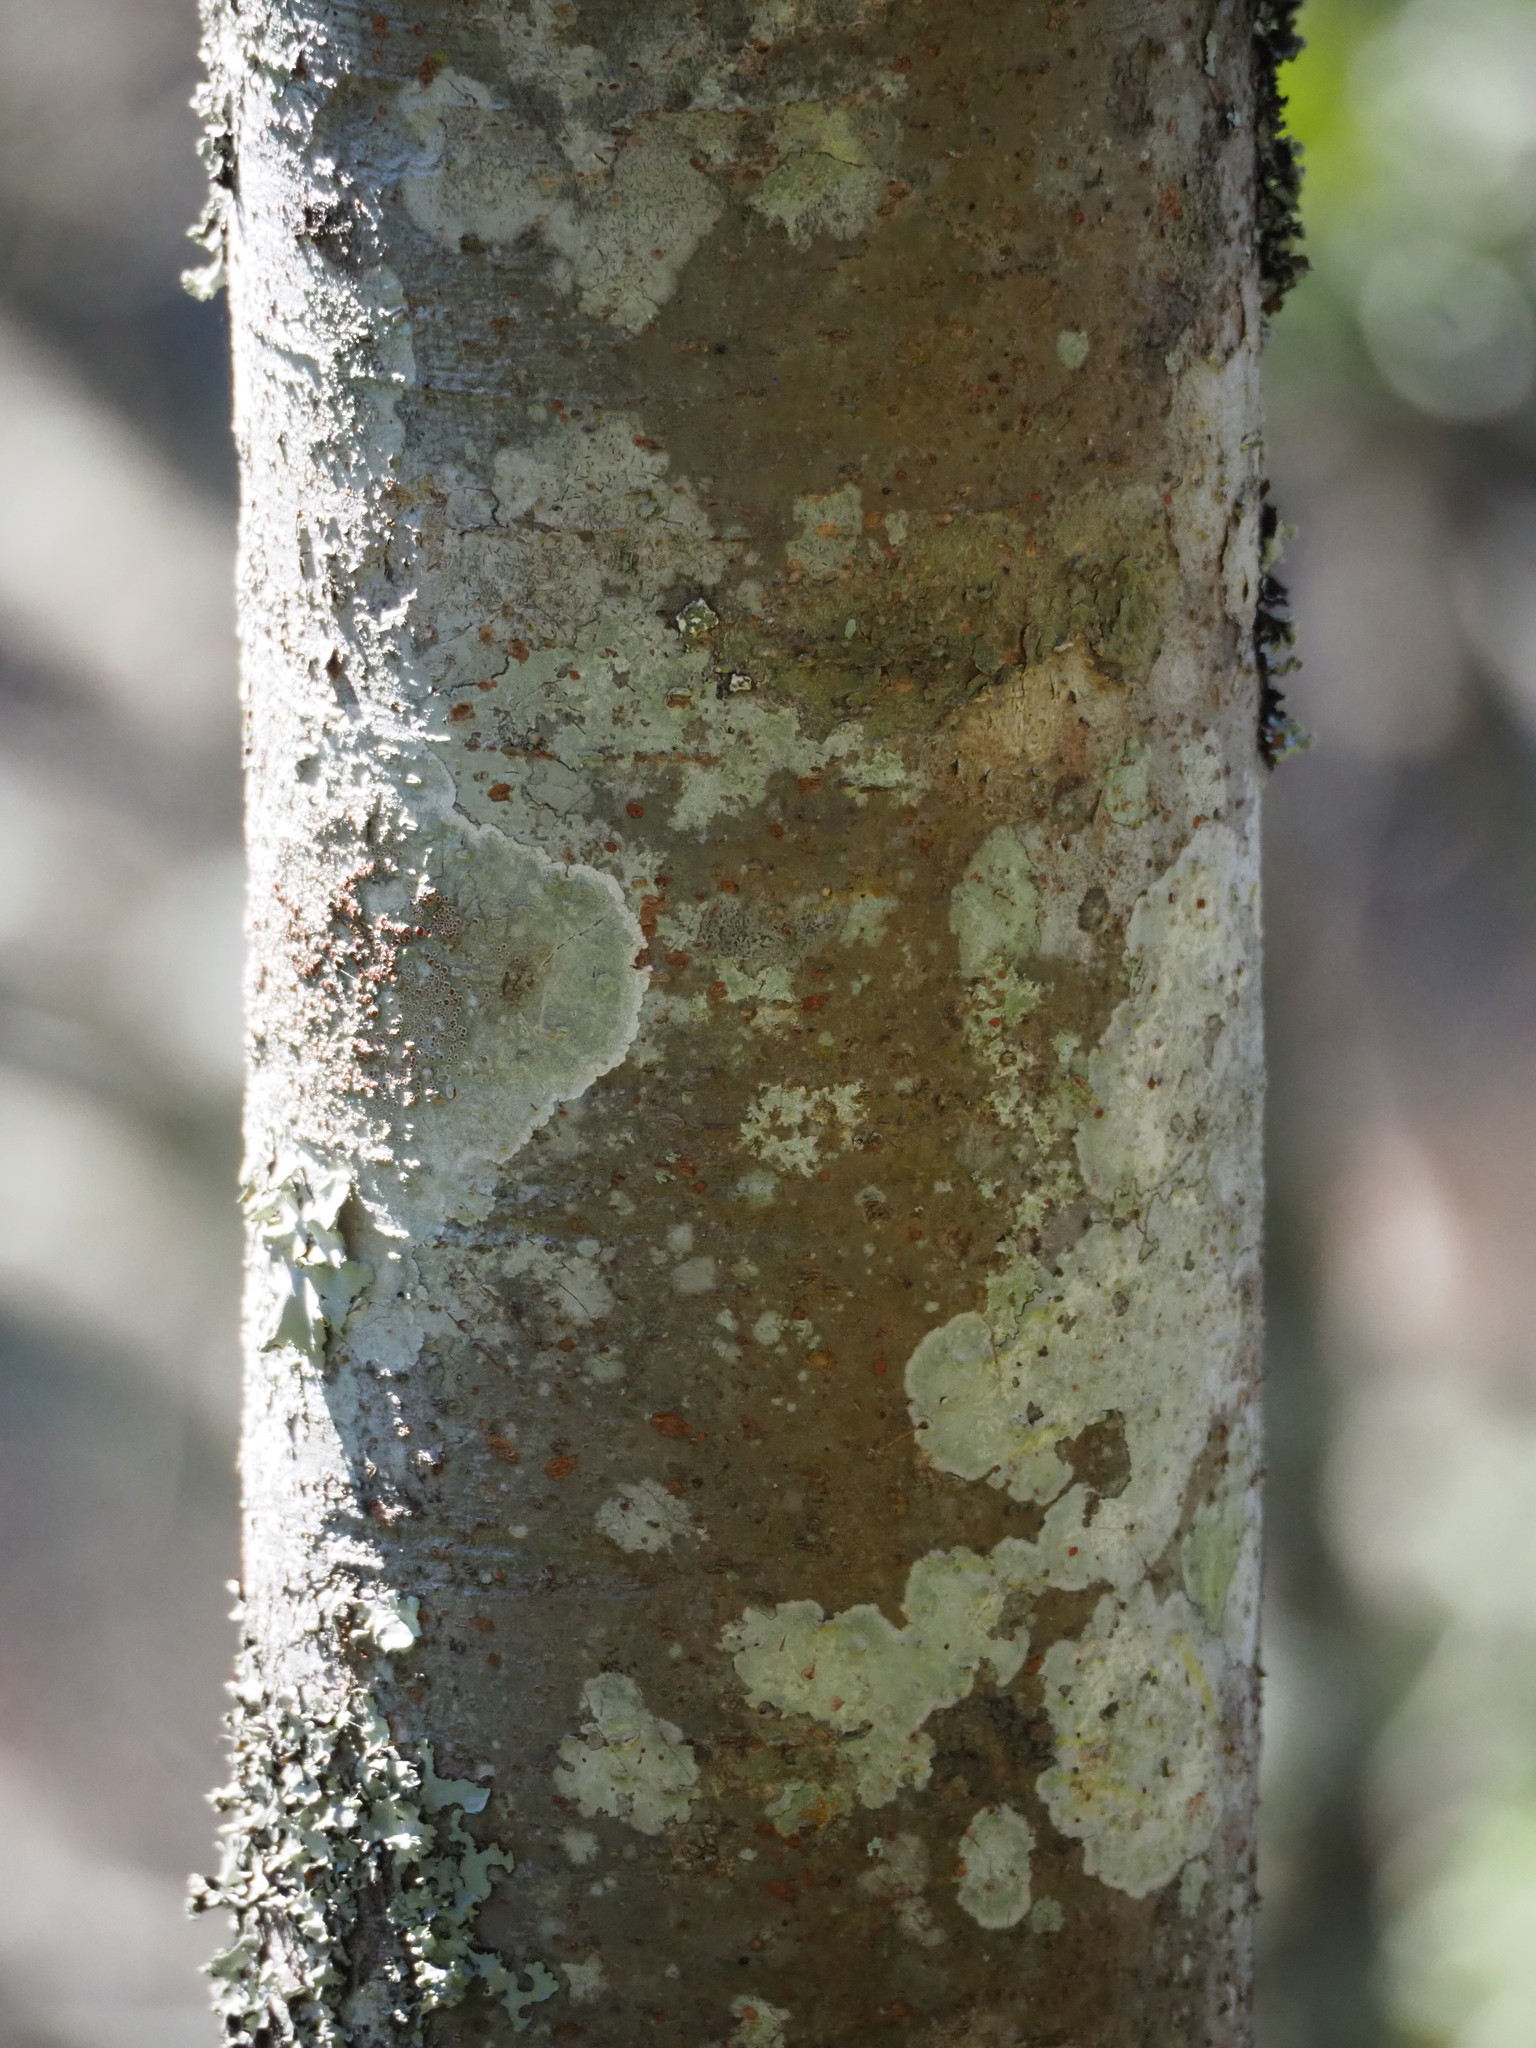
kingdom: Plantae
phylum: Tracheophyta
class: Magnoliopsida
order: Rosales
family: Ulmaceae
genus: Zelkova
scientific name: Zelkova serrata
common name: Japanese zelkova
